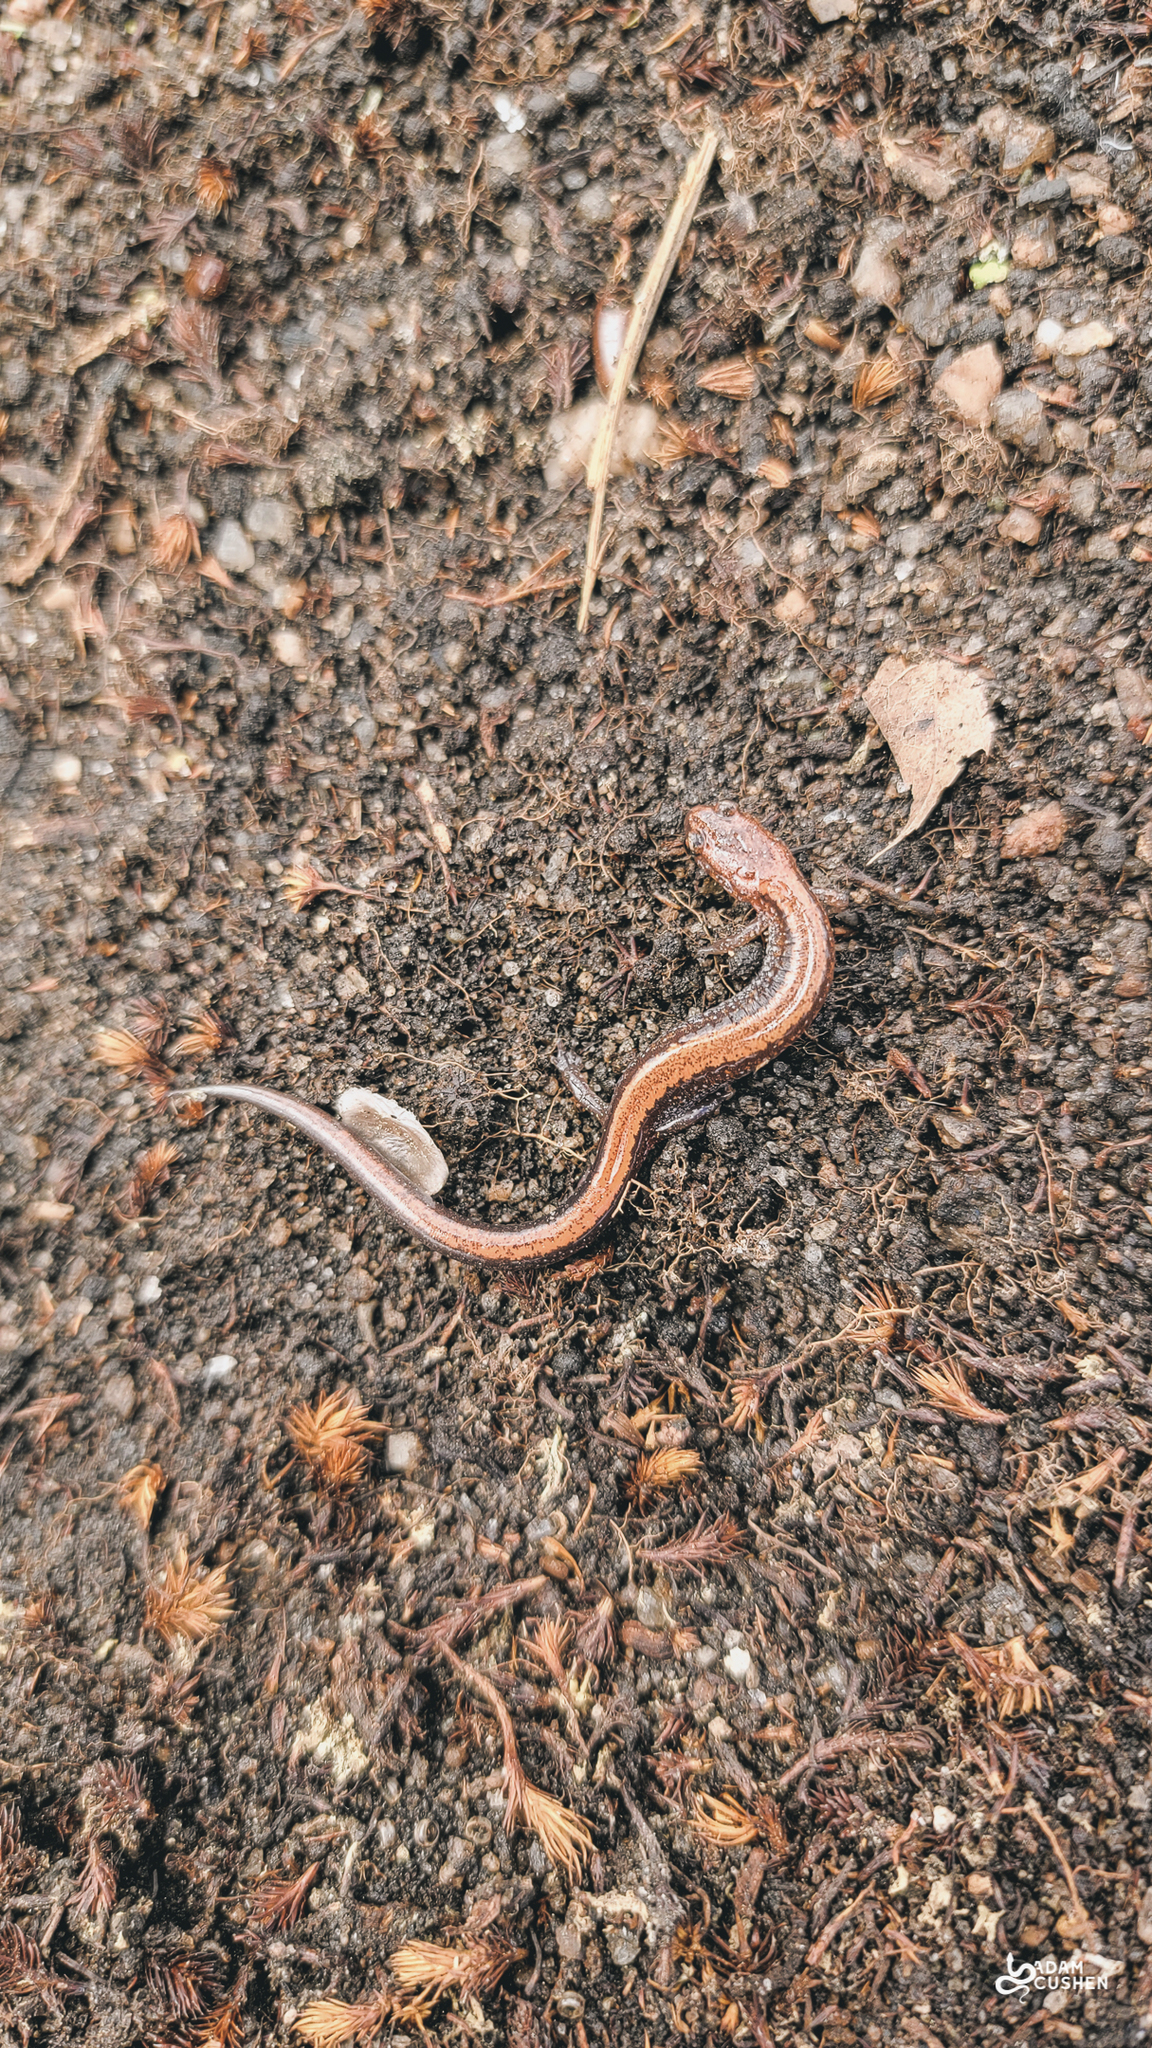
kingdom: Animalia
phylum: Chordata
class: Amphibia
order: Caudata
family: Plethodontidae
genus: Plethodon
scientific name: Plethodon cinereus
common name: Redback salamander
